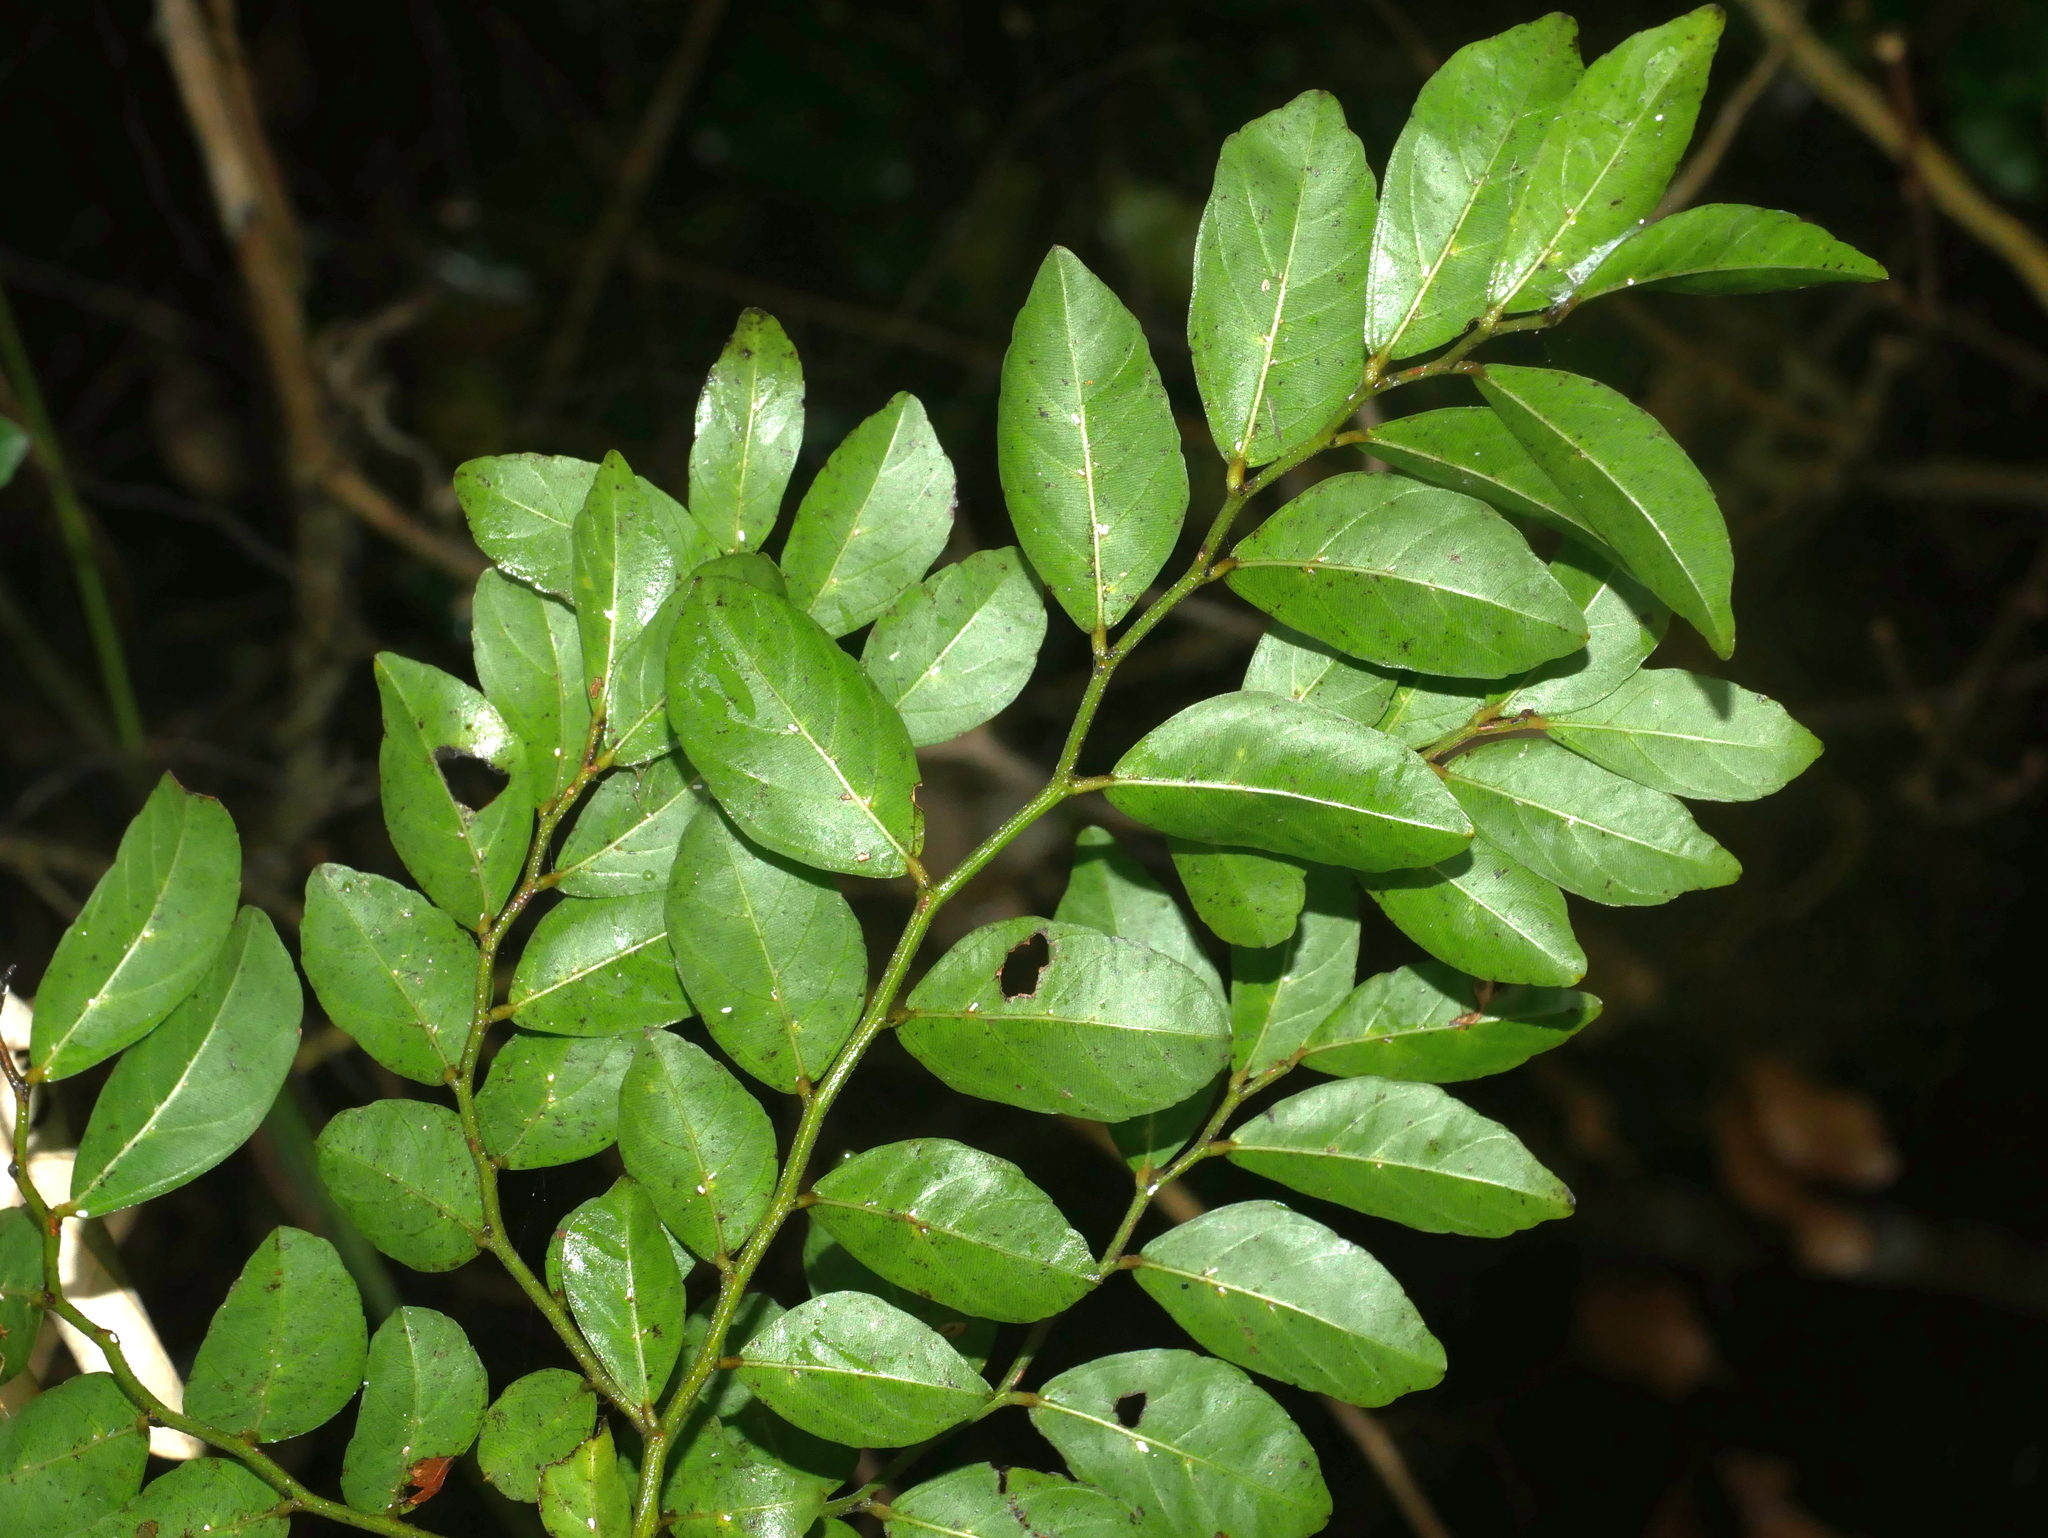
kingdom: Plantae
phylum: Tracheophyta
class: Magnoliopsida
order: Rosales
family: Rhamnaceae
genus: Ventilago
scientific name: Ventilago elegans
